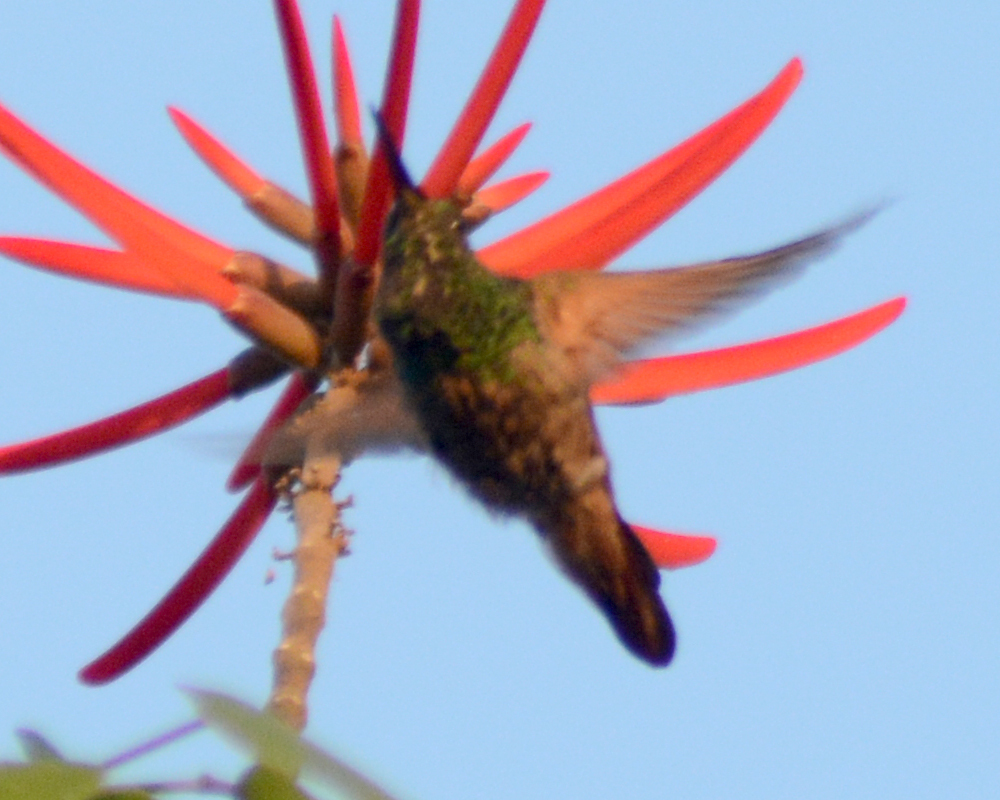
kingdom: Animalia
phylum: Chordata
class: Aves
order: Apodiformes
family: Trochilidae
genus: Saucerottia
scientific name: Saucerottia beryllina
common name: Berylline hummingbird
